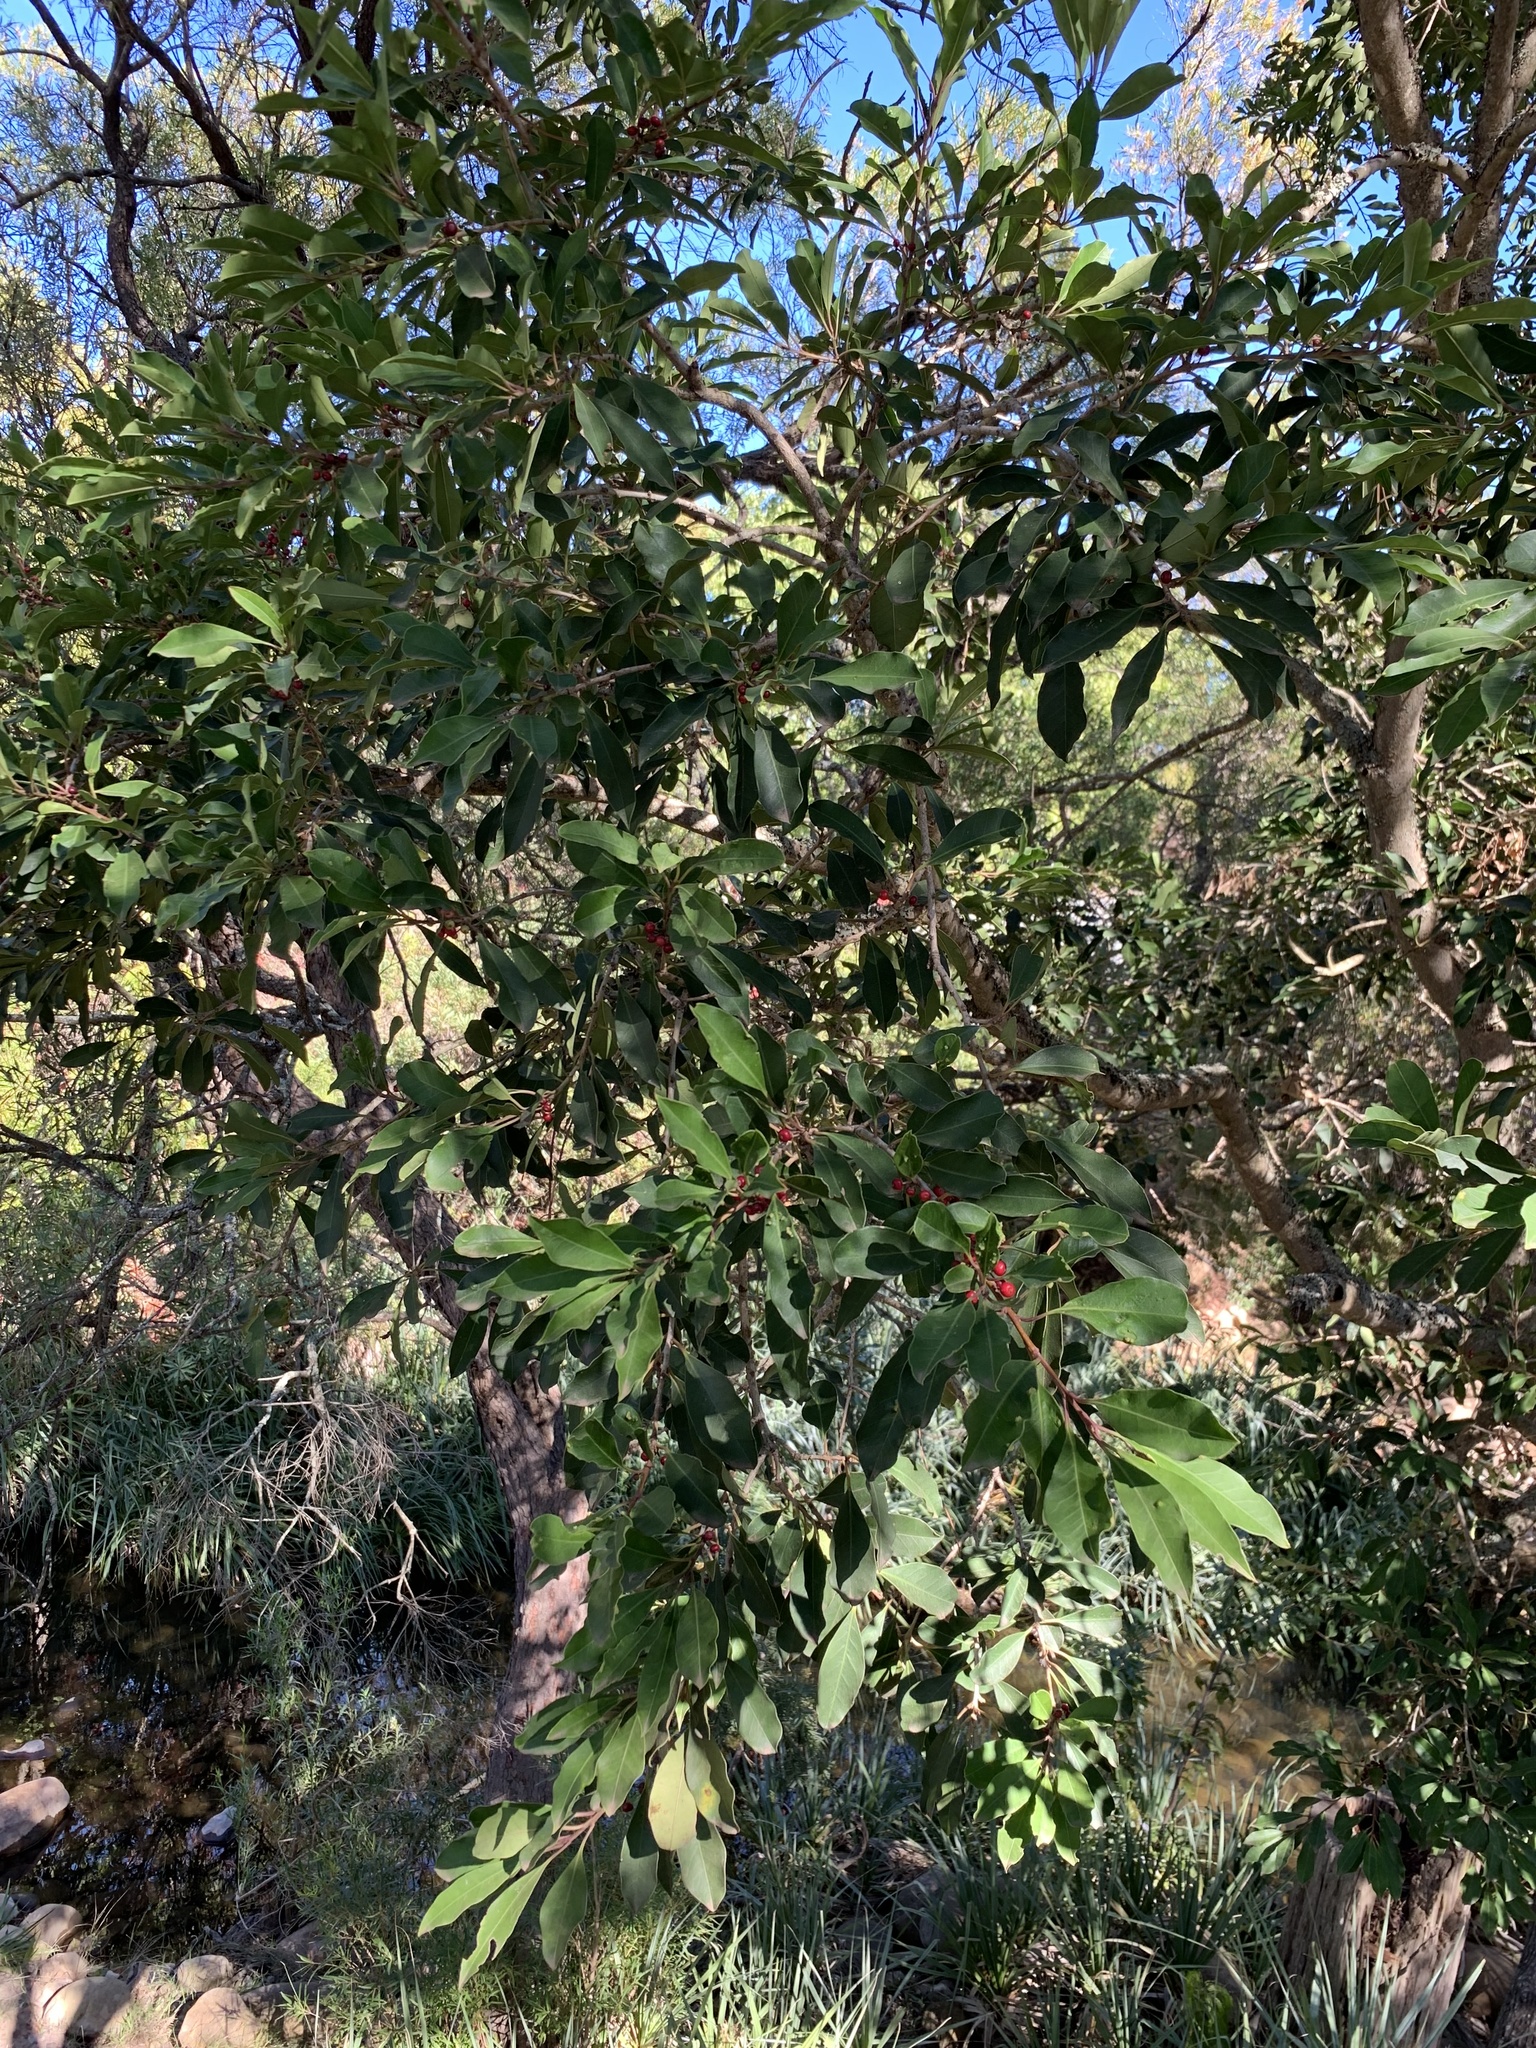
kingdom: Plantae
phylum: Tracheophyta
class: Magnoliopsida
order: Aquifoliales
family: Aquifoliaceae
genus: Ilex
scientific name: Ilex mitis
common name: African holly
